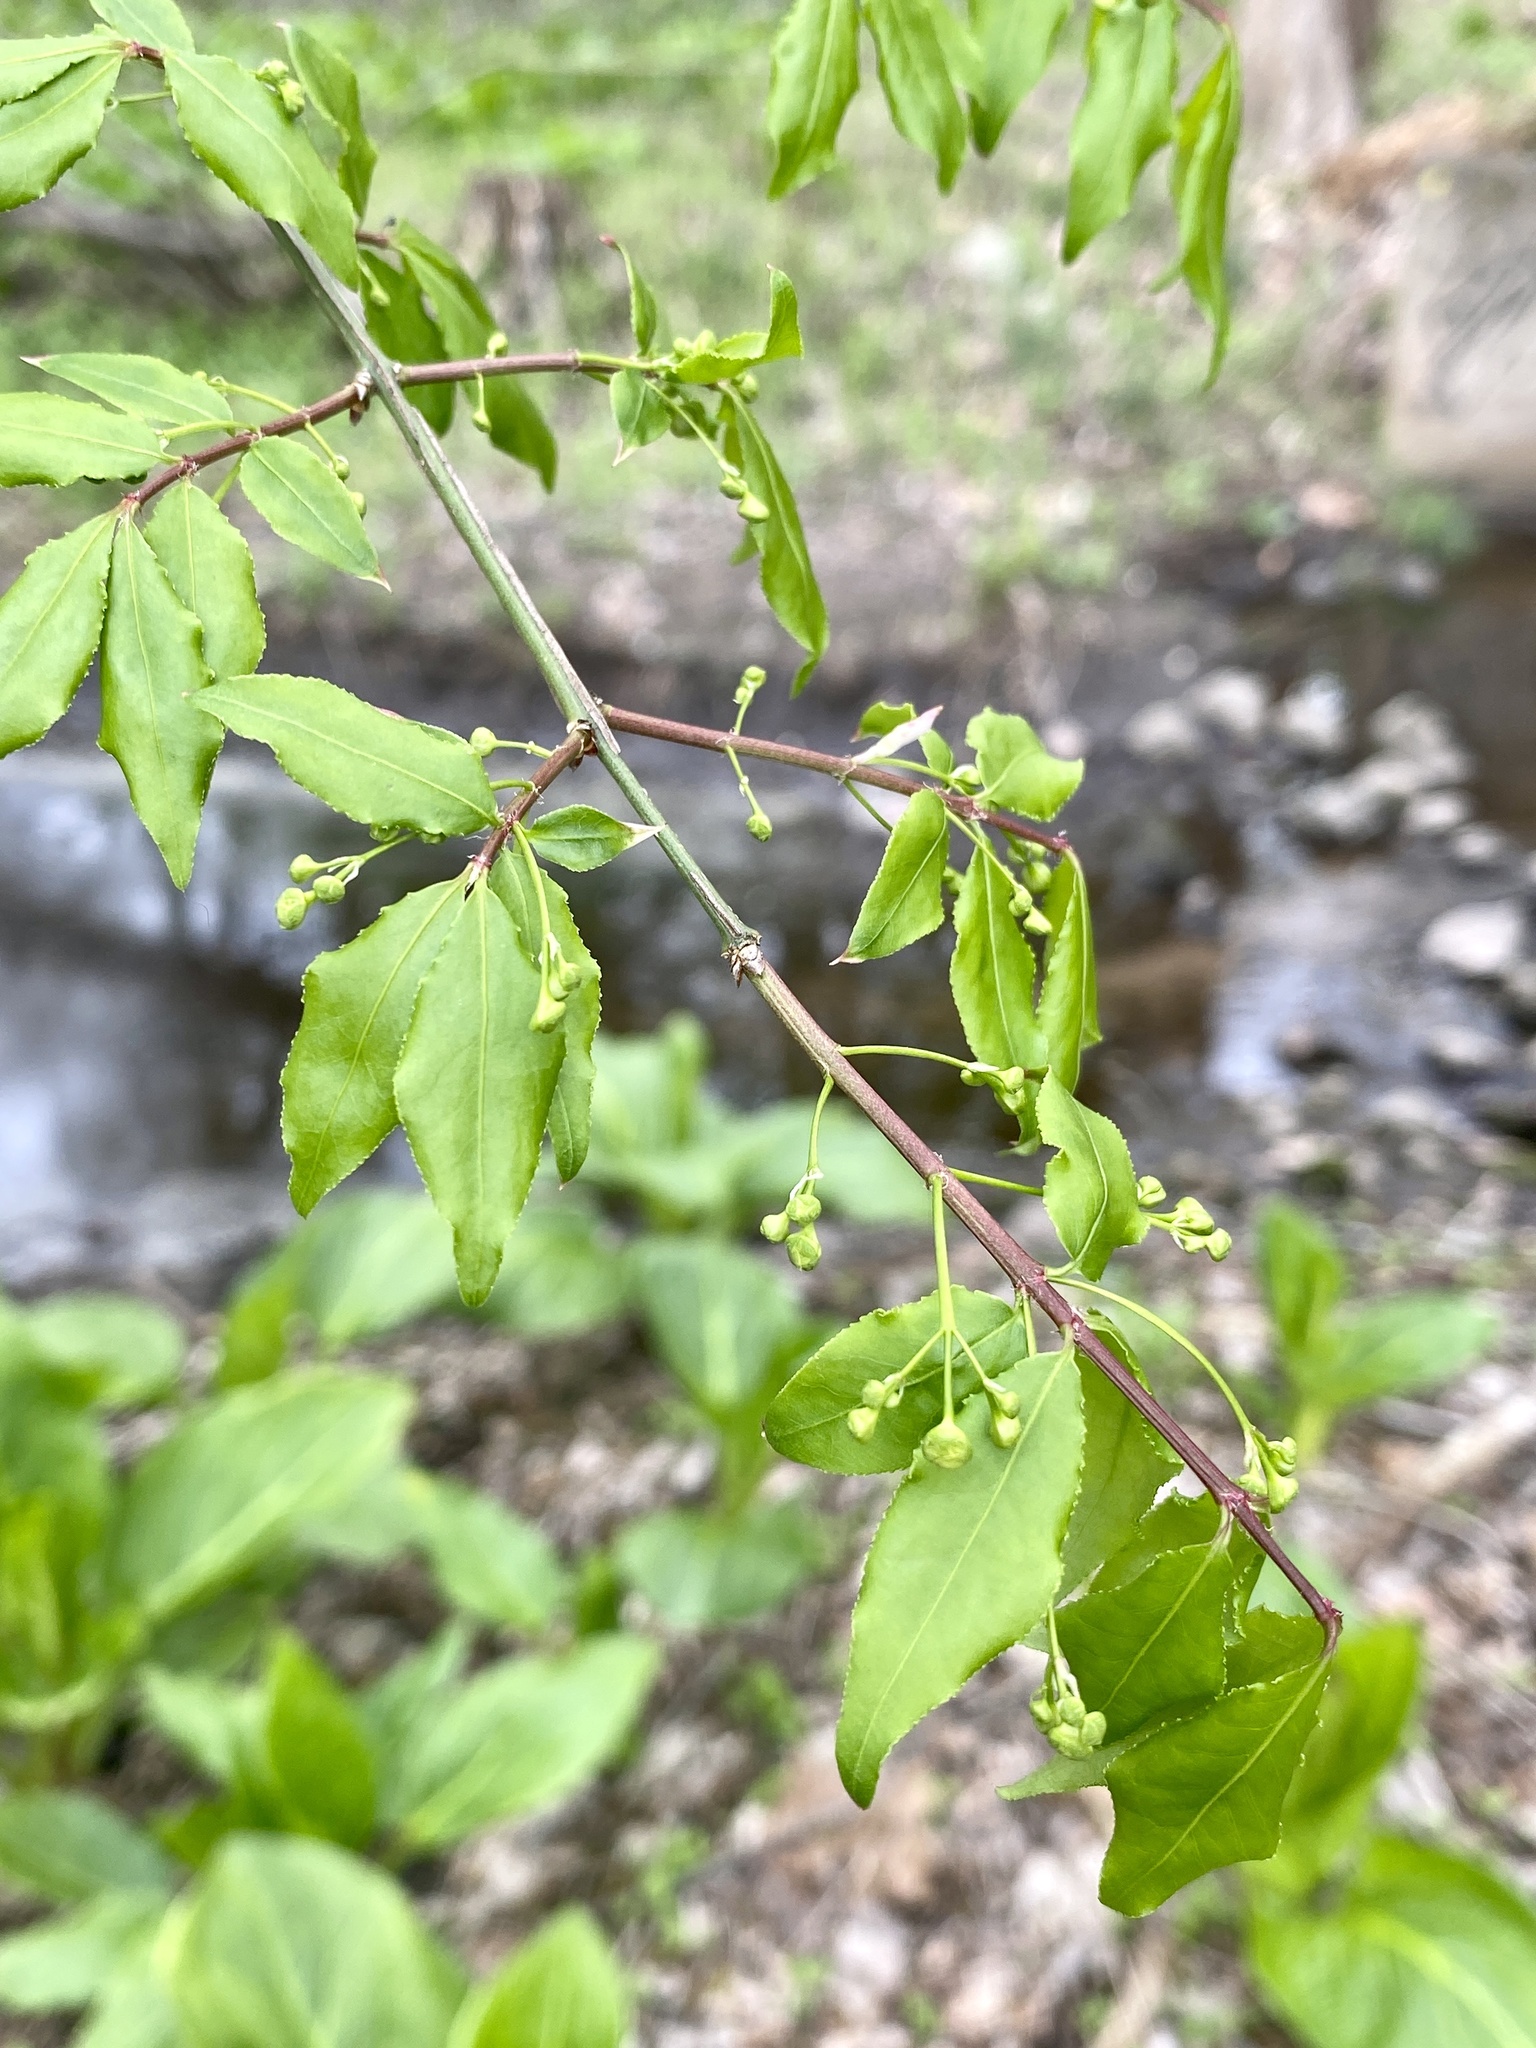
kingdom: Plantae
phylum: Tracheophyta
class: Magnoliopsida
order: Celastrales
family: Celastraceae
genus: Euonymus
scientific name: Euonymus alatus
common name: Winged euonymus
